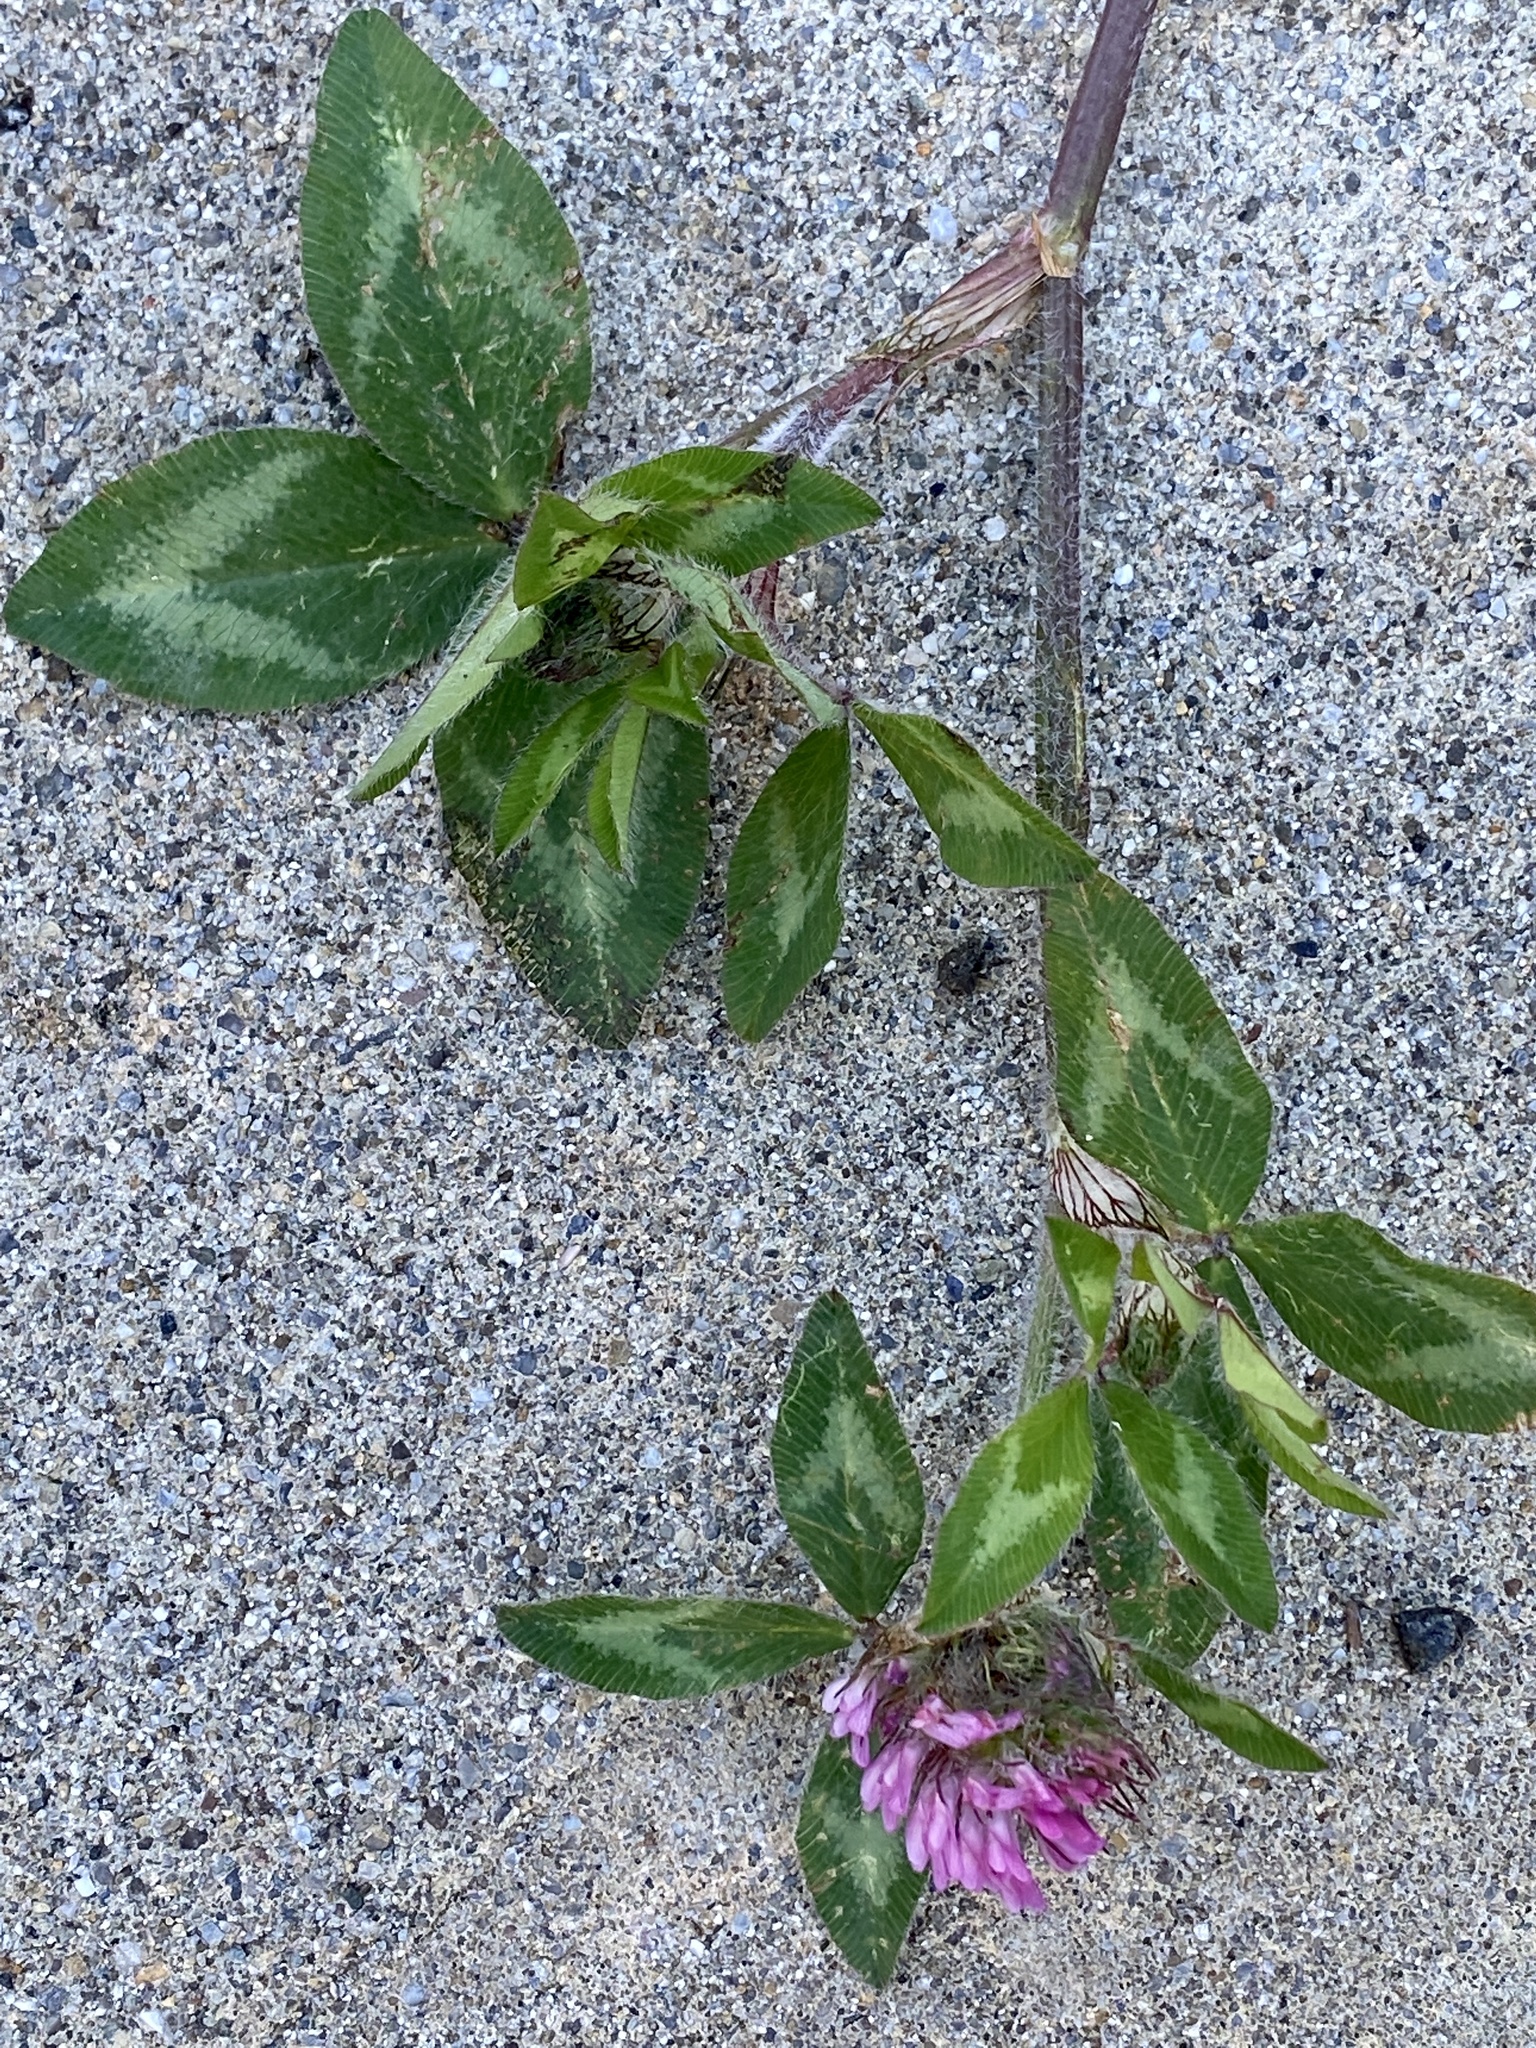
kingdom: Plantae
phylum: Tracheophyta
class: Magnoliopsida
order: Fabales
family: Fabaceae
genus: Trifolium
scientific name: Trifolium pratense
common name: Red clover
